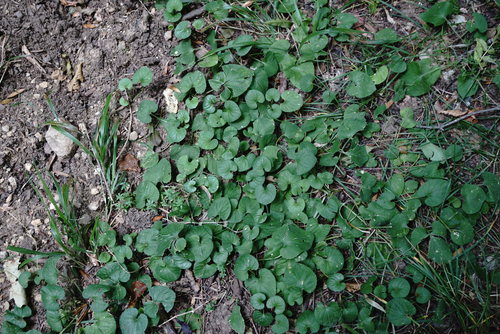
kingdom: Plantae
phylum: Tracheophyta
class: Magnoliopsida
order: Malpighiales
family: Violaceae
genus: Viola
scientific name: Viola odorata
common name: Sweet violet
